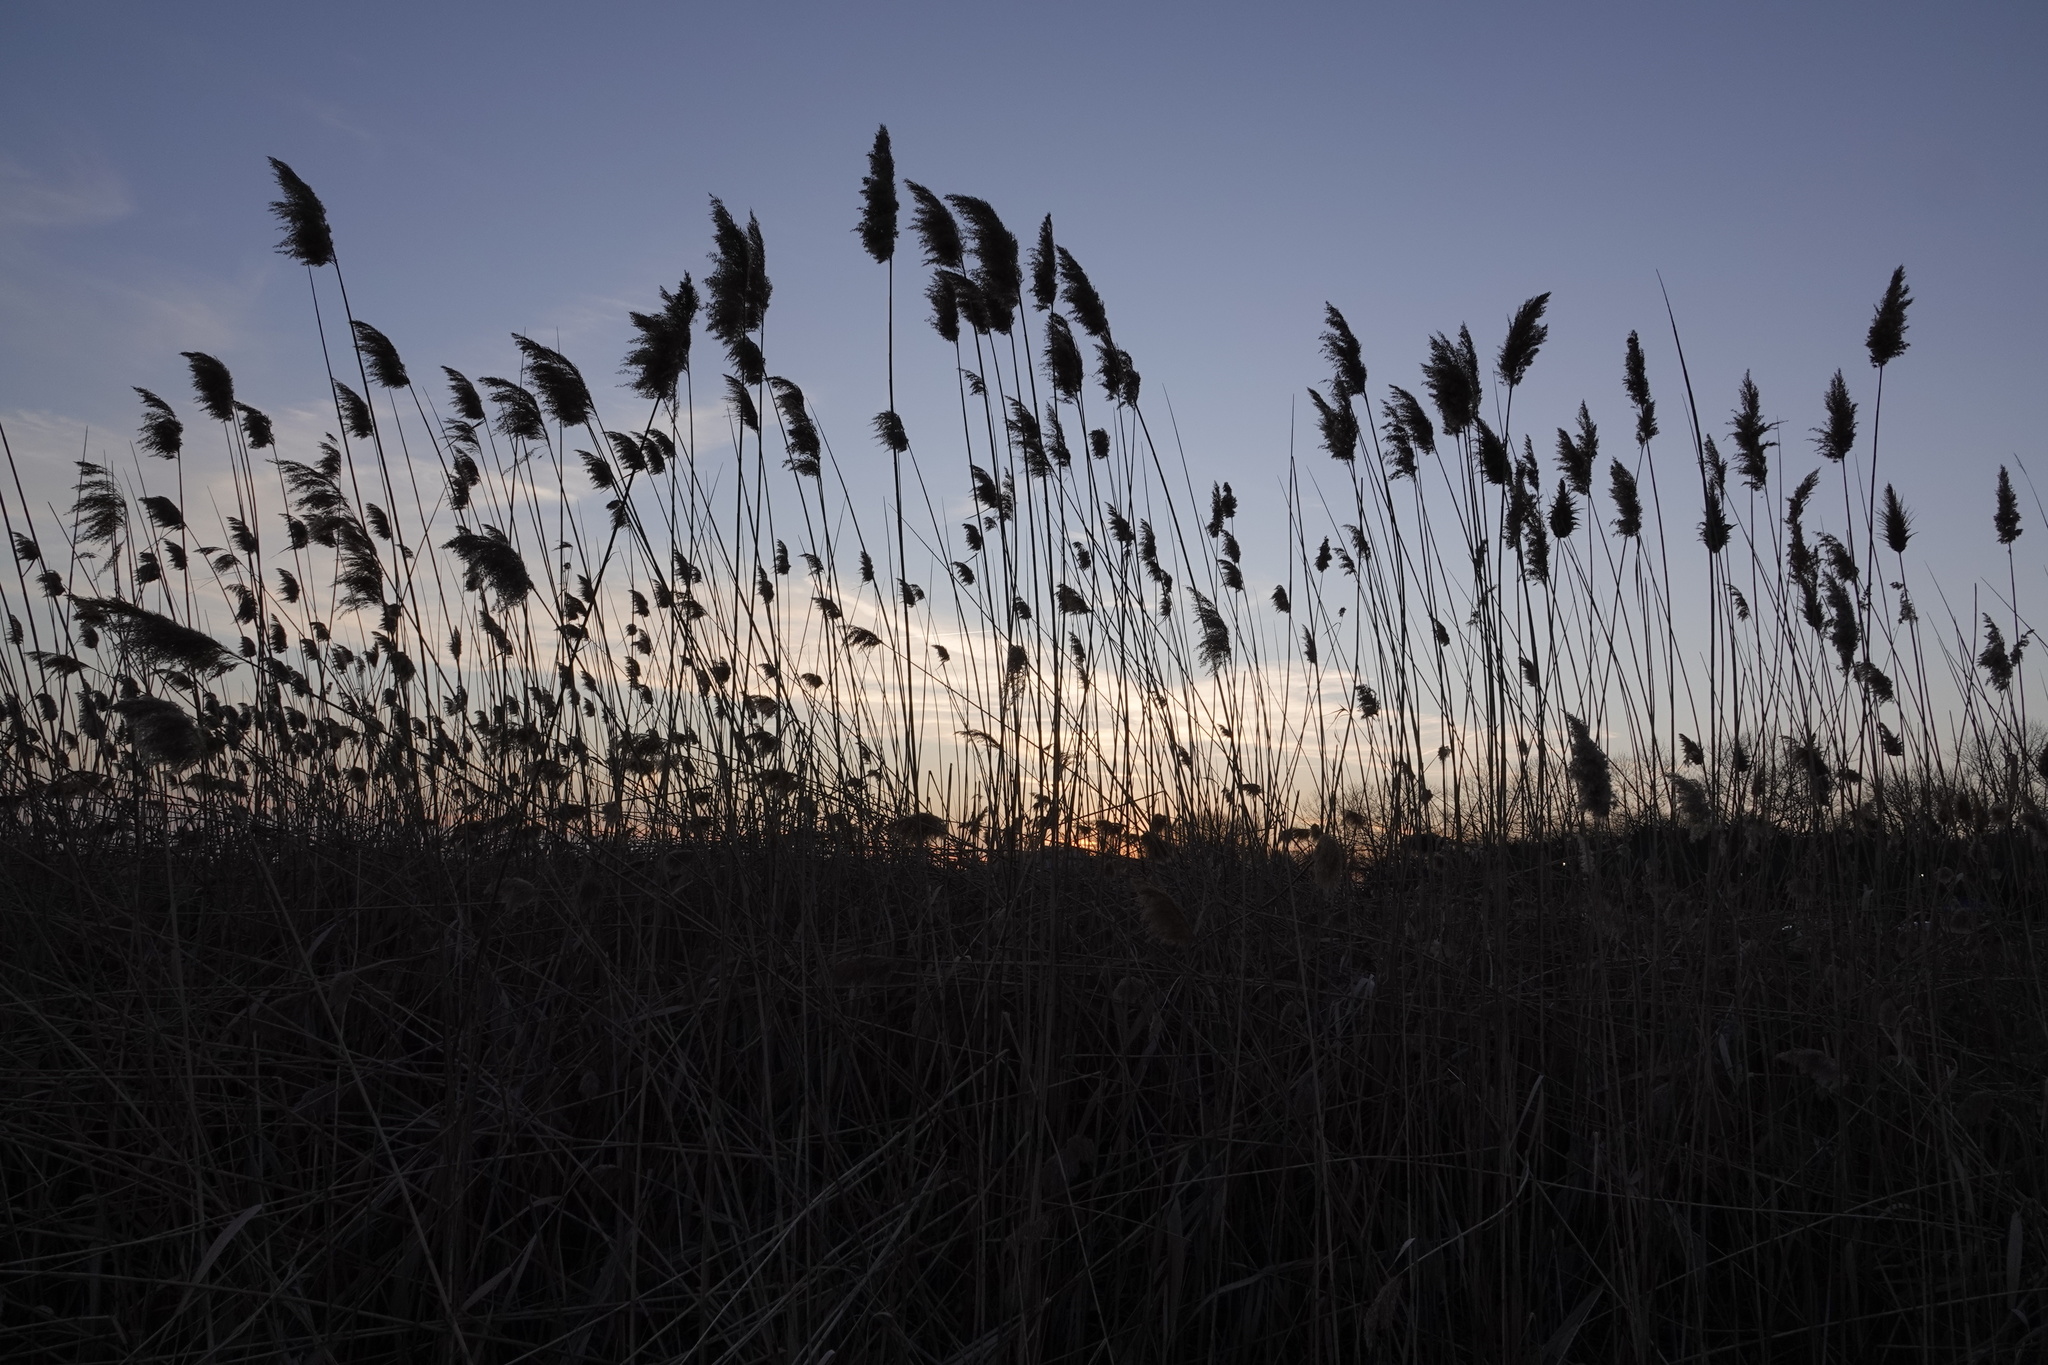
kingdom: Plantae
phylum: Tracheophyta
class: Liliopsida
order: Poales
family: Poaceae
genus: Phragmites
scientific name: Phragmites australis
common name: Common reed
